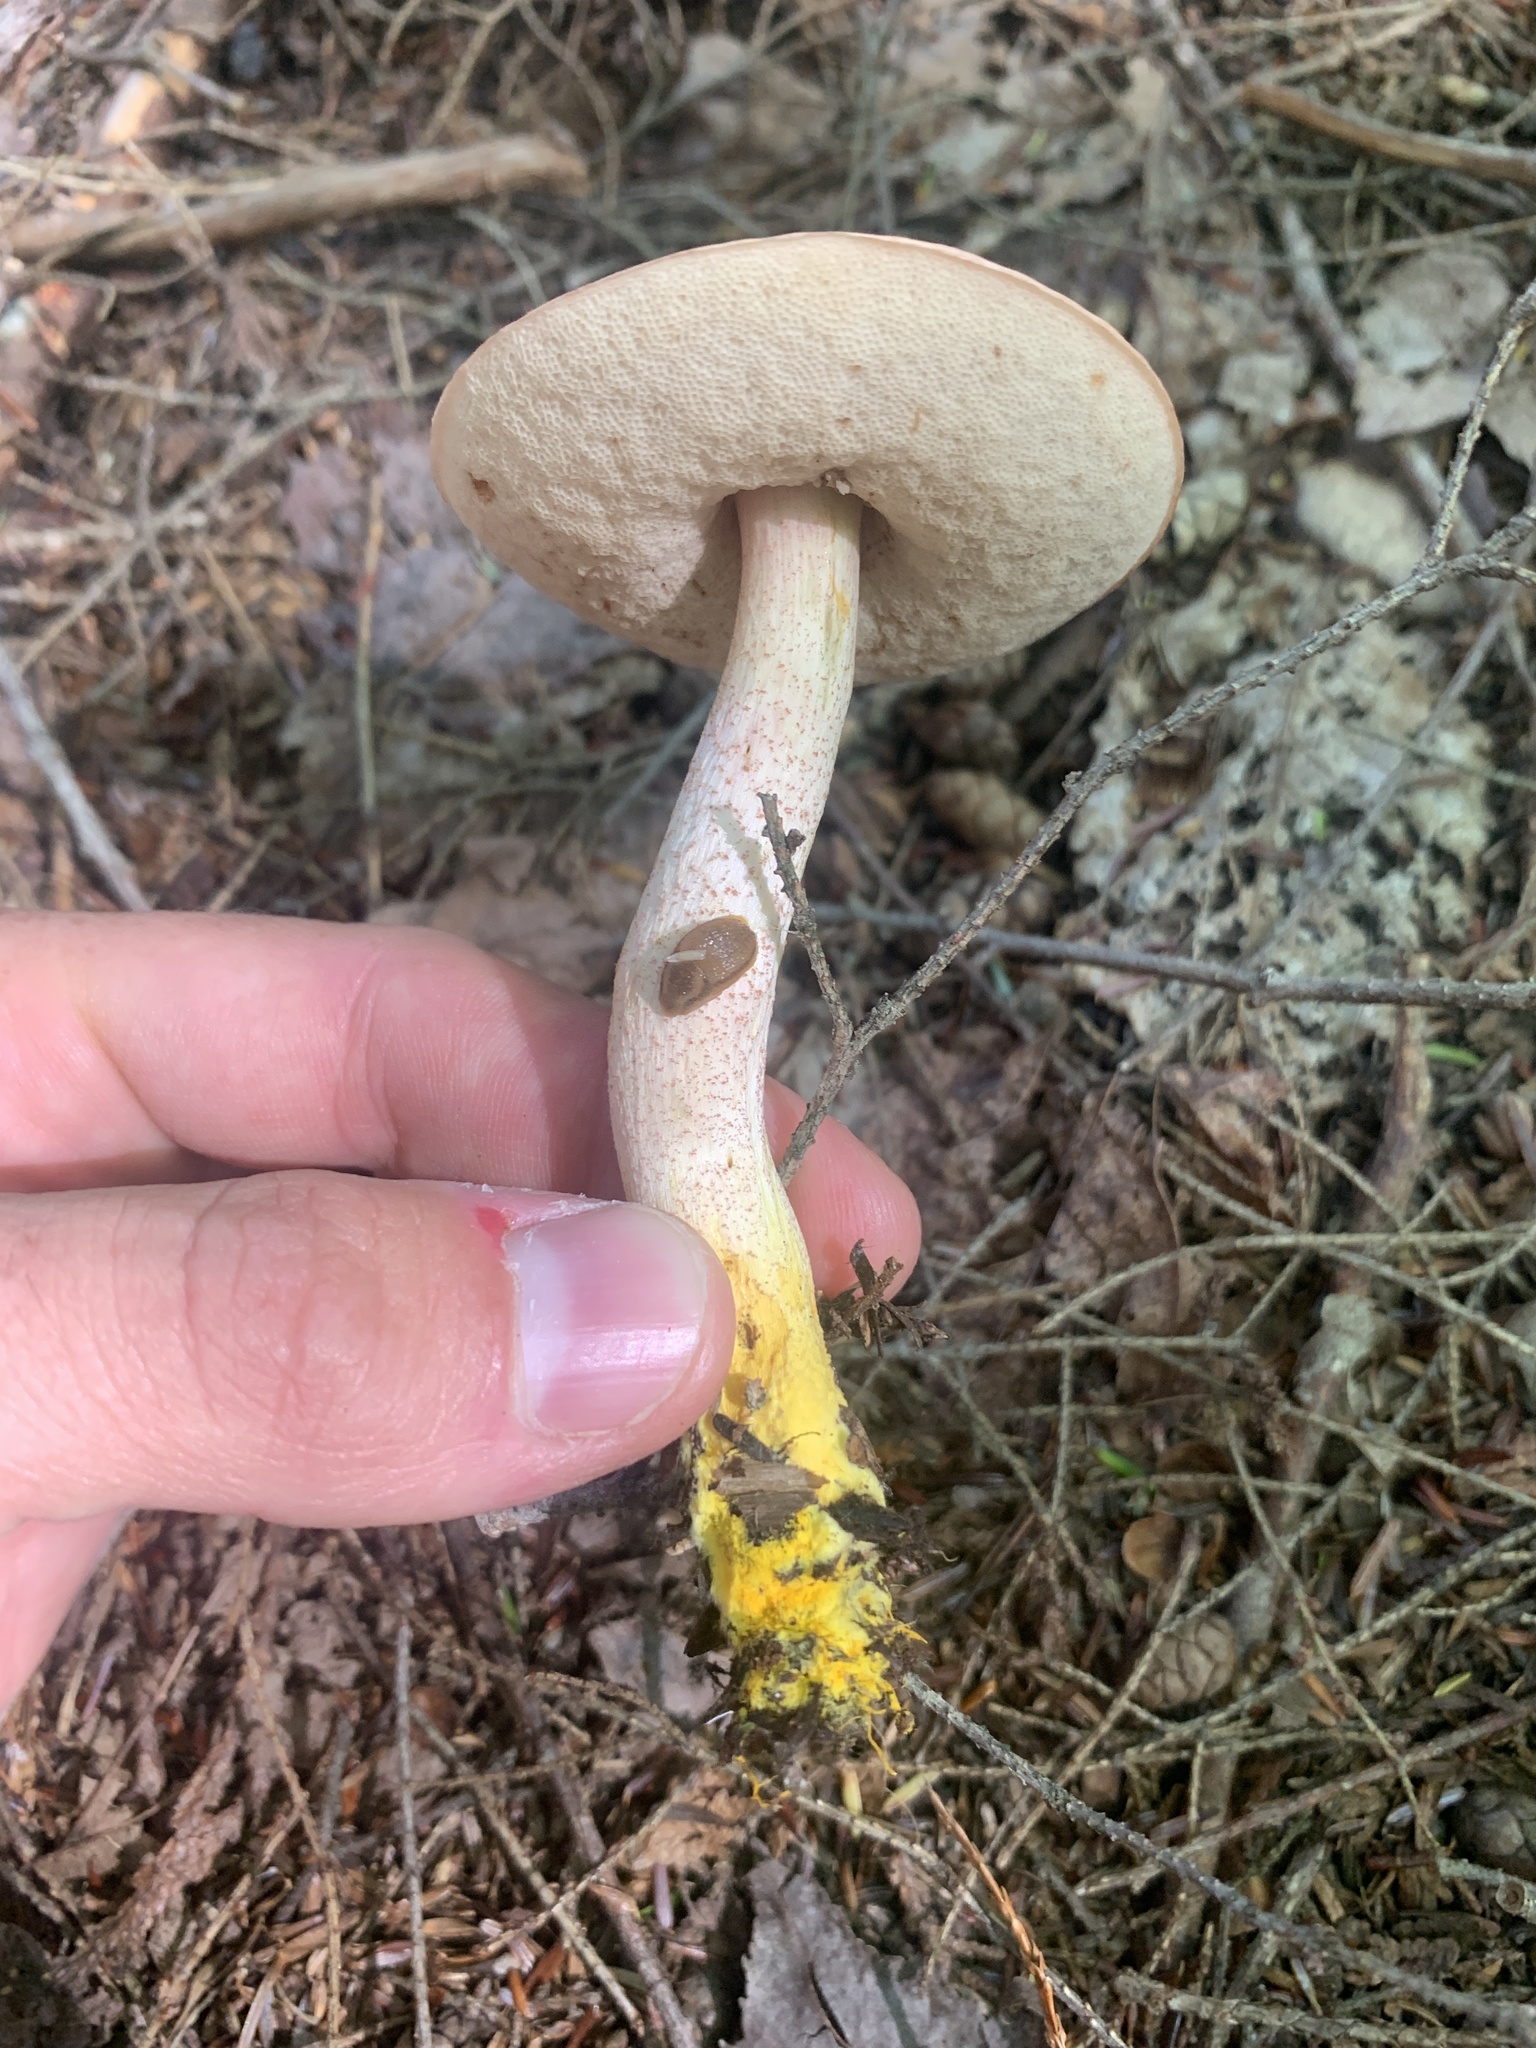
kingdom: Fungi
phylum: Basidiomycota
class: Agaricomycetes
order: Boletales
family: Boletaceae
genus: Harrya
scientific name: Harrya chromipes
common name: Chrome-footed bolete
